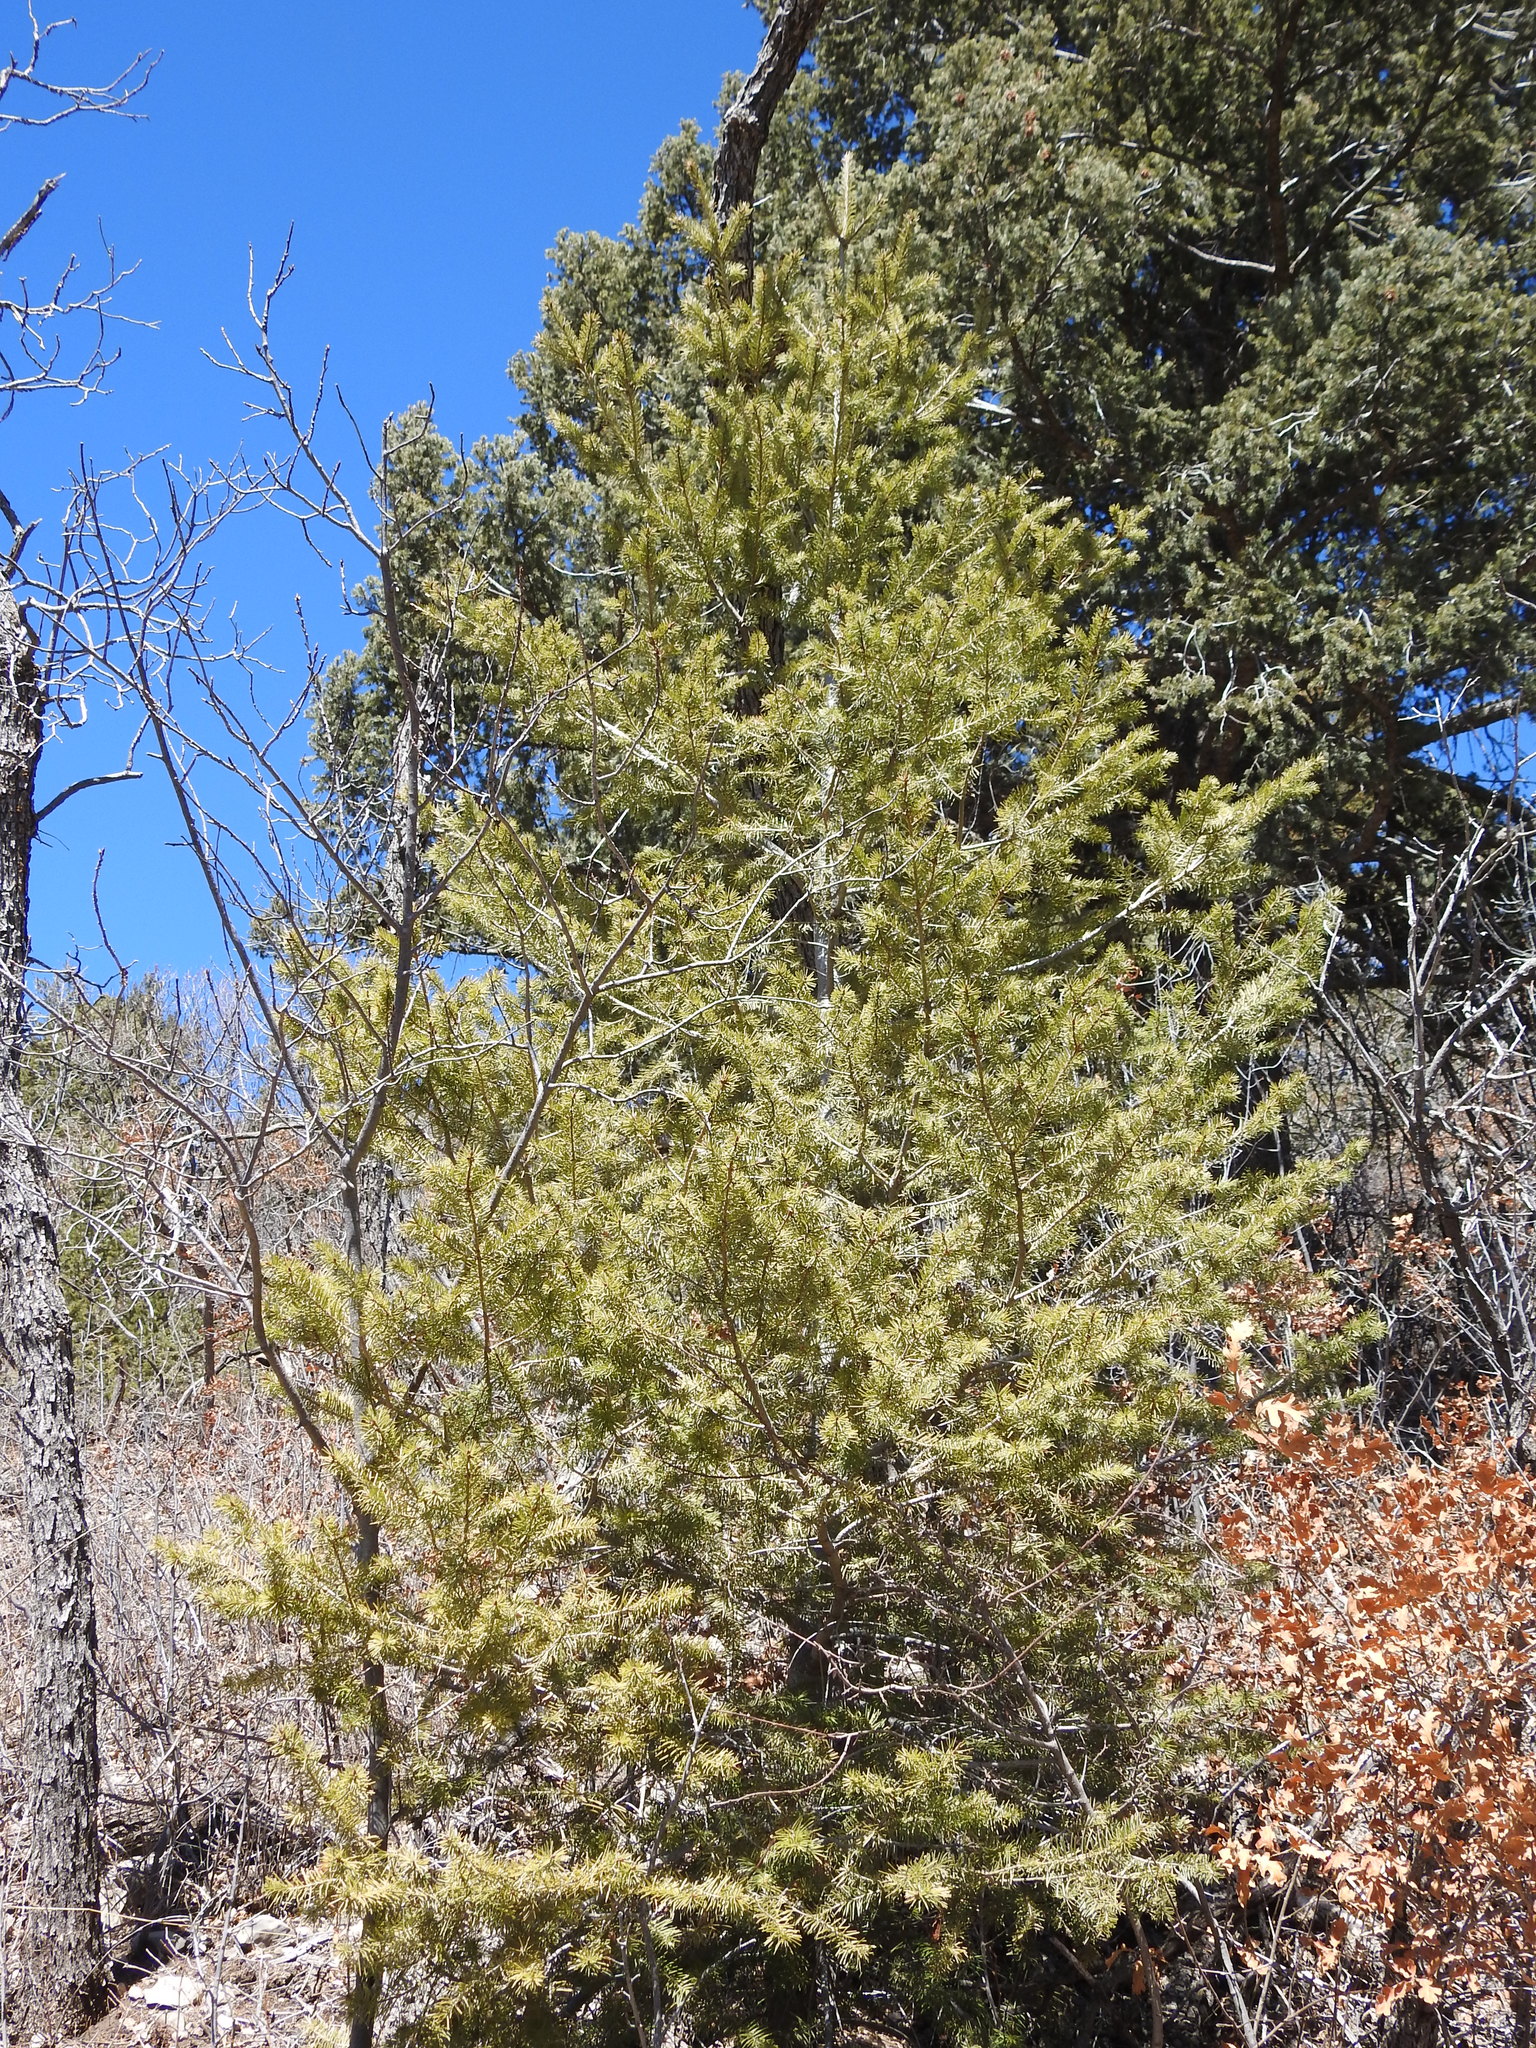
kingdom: Plantae
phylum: Tracheophyta
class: Pinopsida
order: Pinales
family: Pinaceae
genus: Pseudotsuga
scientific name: Pseudotsuga menziesii
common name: Douglas fir
